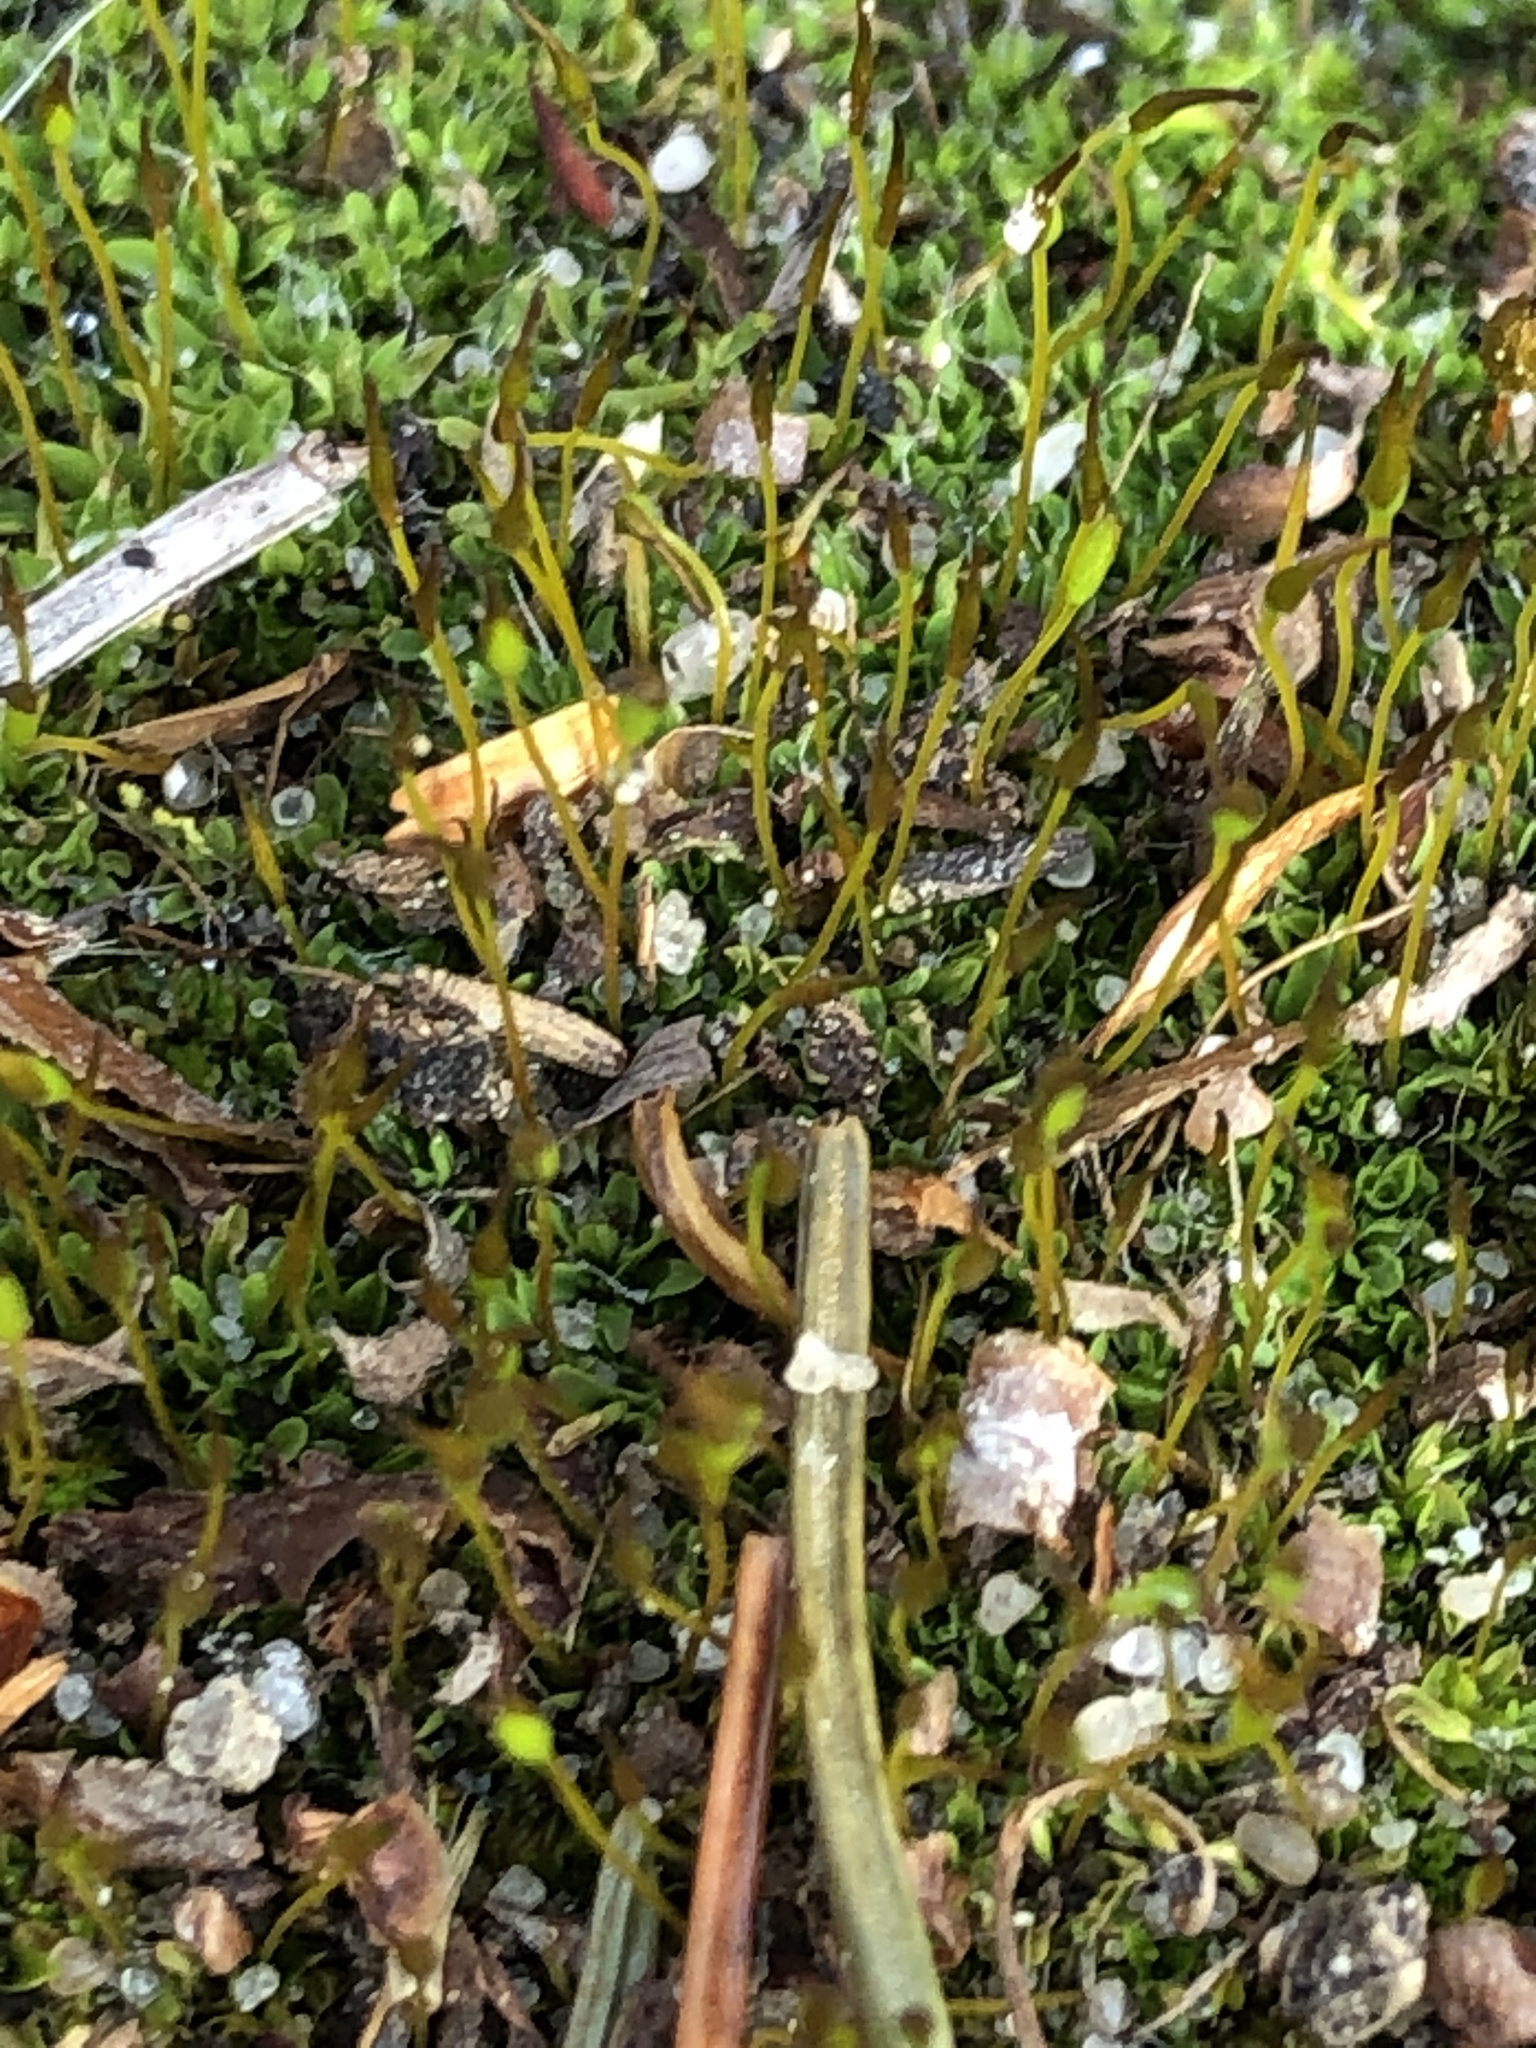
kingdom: Plantae
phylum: Bryophyta
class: Bryopsida
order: Pottiales
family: Pottiaceae
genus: Tortula
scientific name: Tortula muralis
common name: Wall screw-moss
